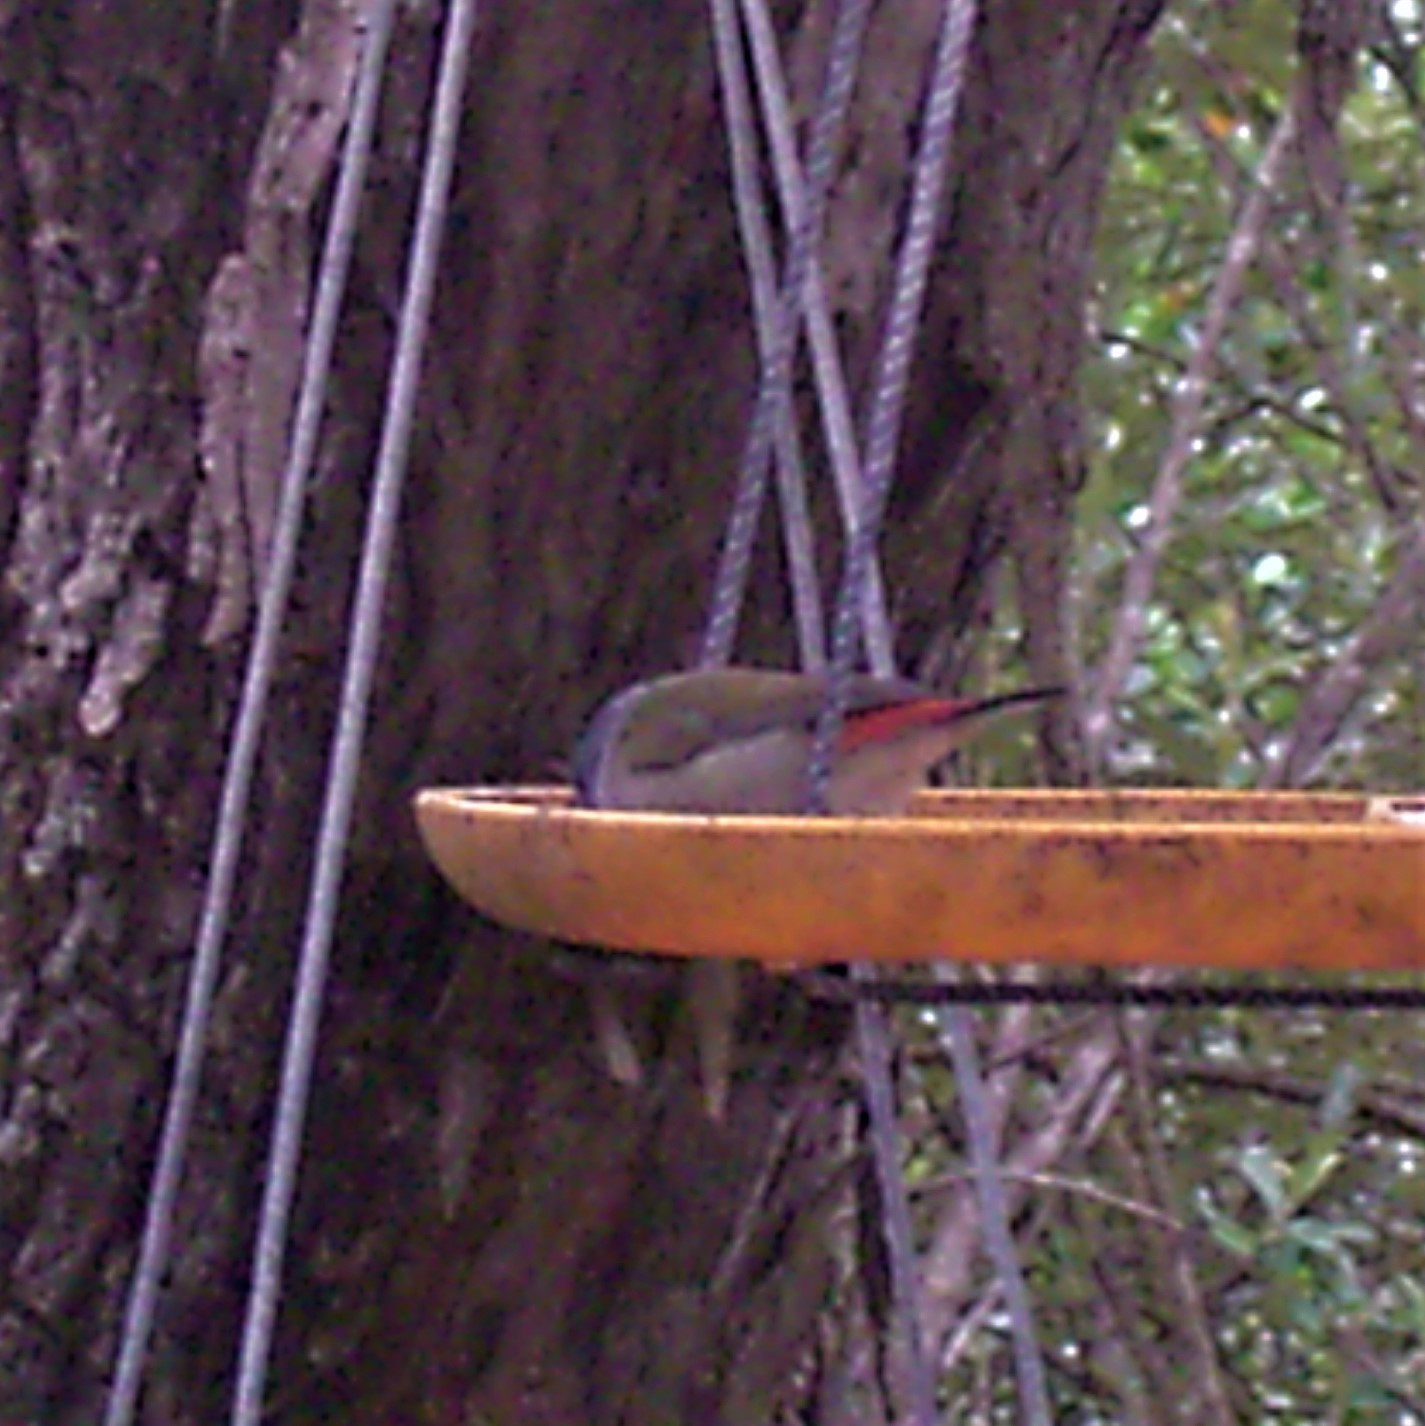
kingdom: Animalia
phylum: Chordata
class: Aves
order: Passeriformes
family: Estrildidae
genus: Coccopygia
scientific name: Coccopygia melanotis
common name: Swee waxbill
